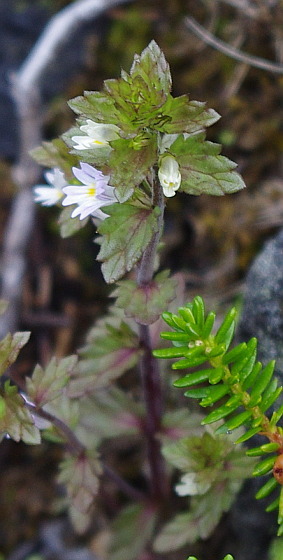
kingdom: Plantae
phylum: Tracheophyta
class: Magnoliopsida
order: Lamiales
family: Orobanchaceae
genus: Euphrasia
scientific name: Euphrasia wettsteinii
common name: Wettstein's eyebright
